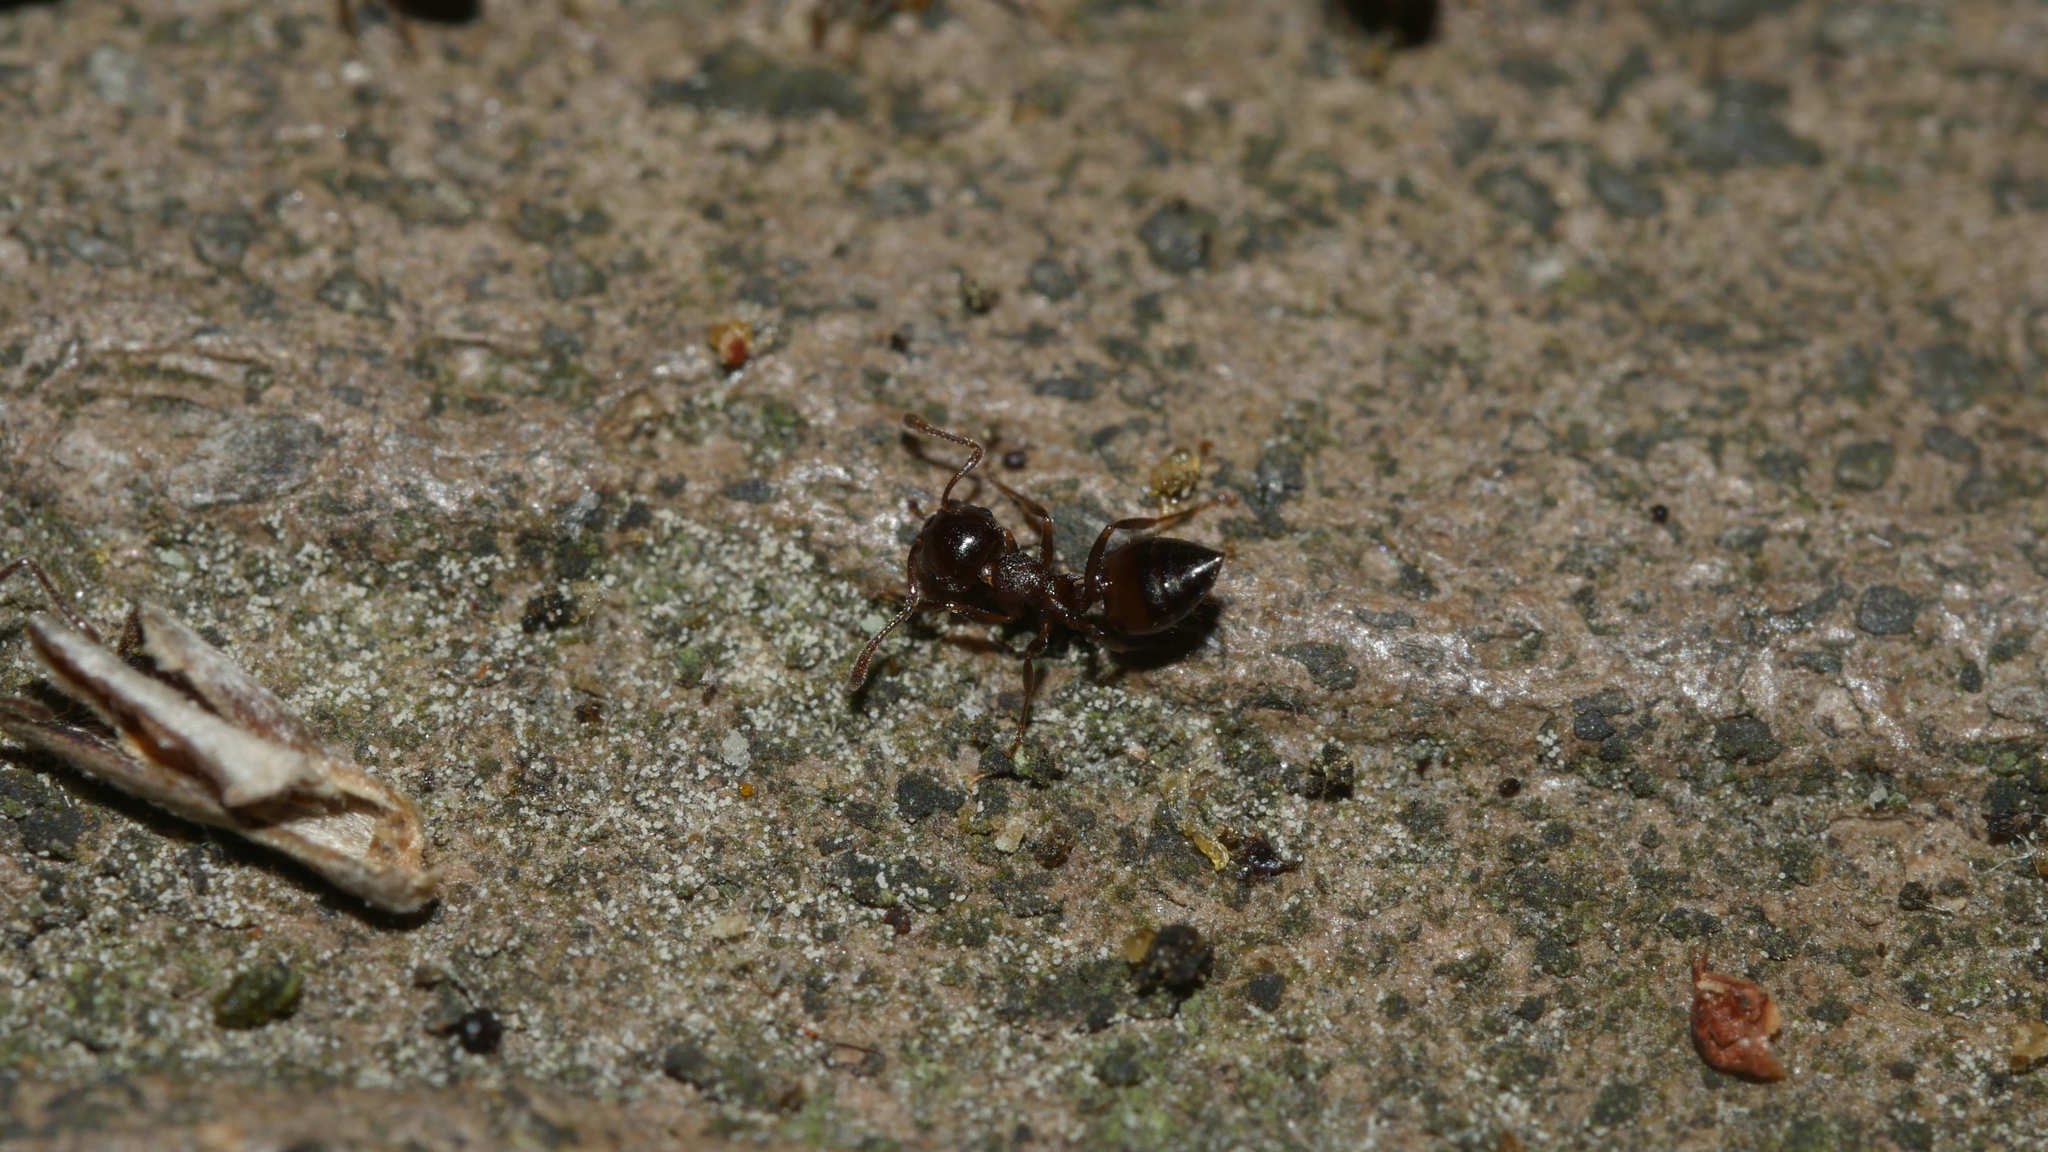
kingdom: Animalia
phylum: Arthropoda
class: Insecta
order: Hymenoptera
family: Formicidae
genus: Crematogaster
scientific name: Crematogaster cerasi
